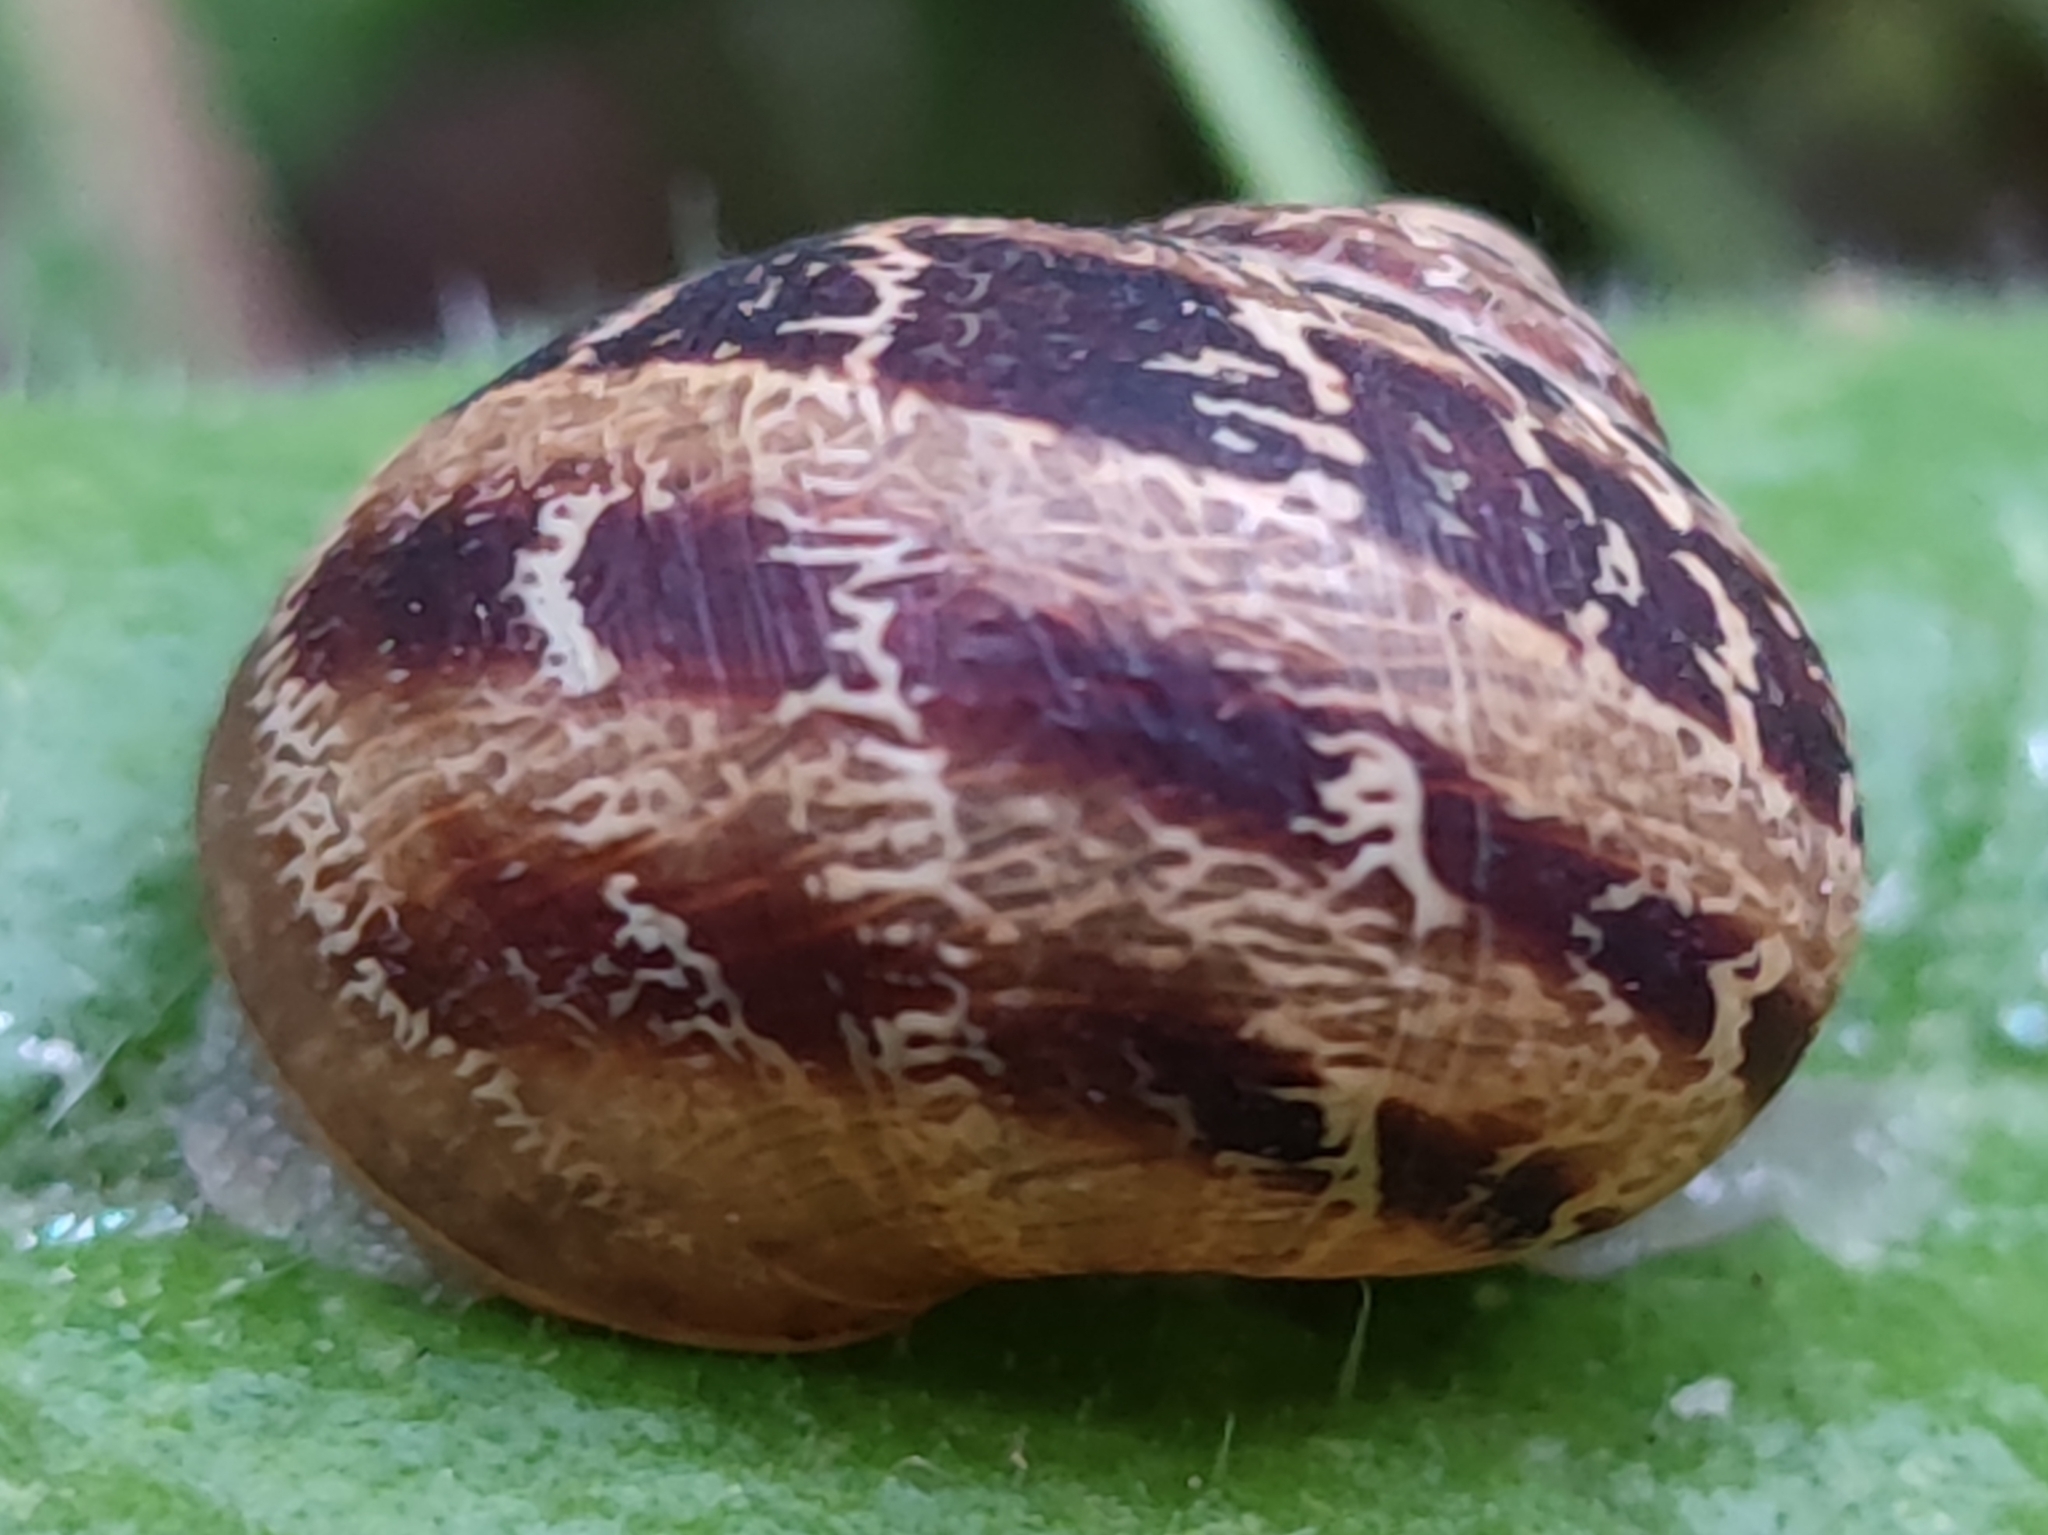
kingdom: Animalia
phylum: Mollusca
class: Gastropoda
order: Stylommatophora
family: Helicidae
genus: Cornu
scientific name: Cornu aspersum
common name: Brown garden snail
